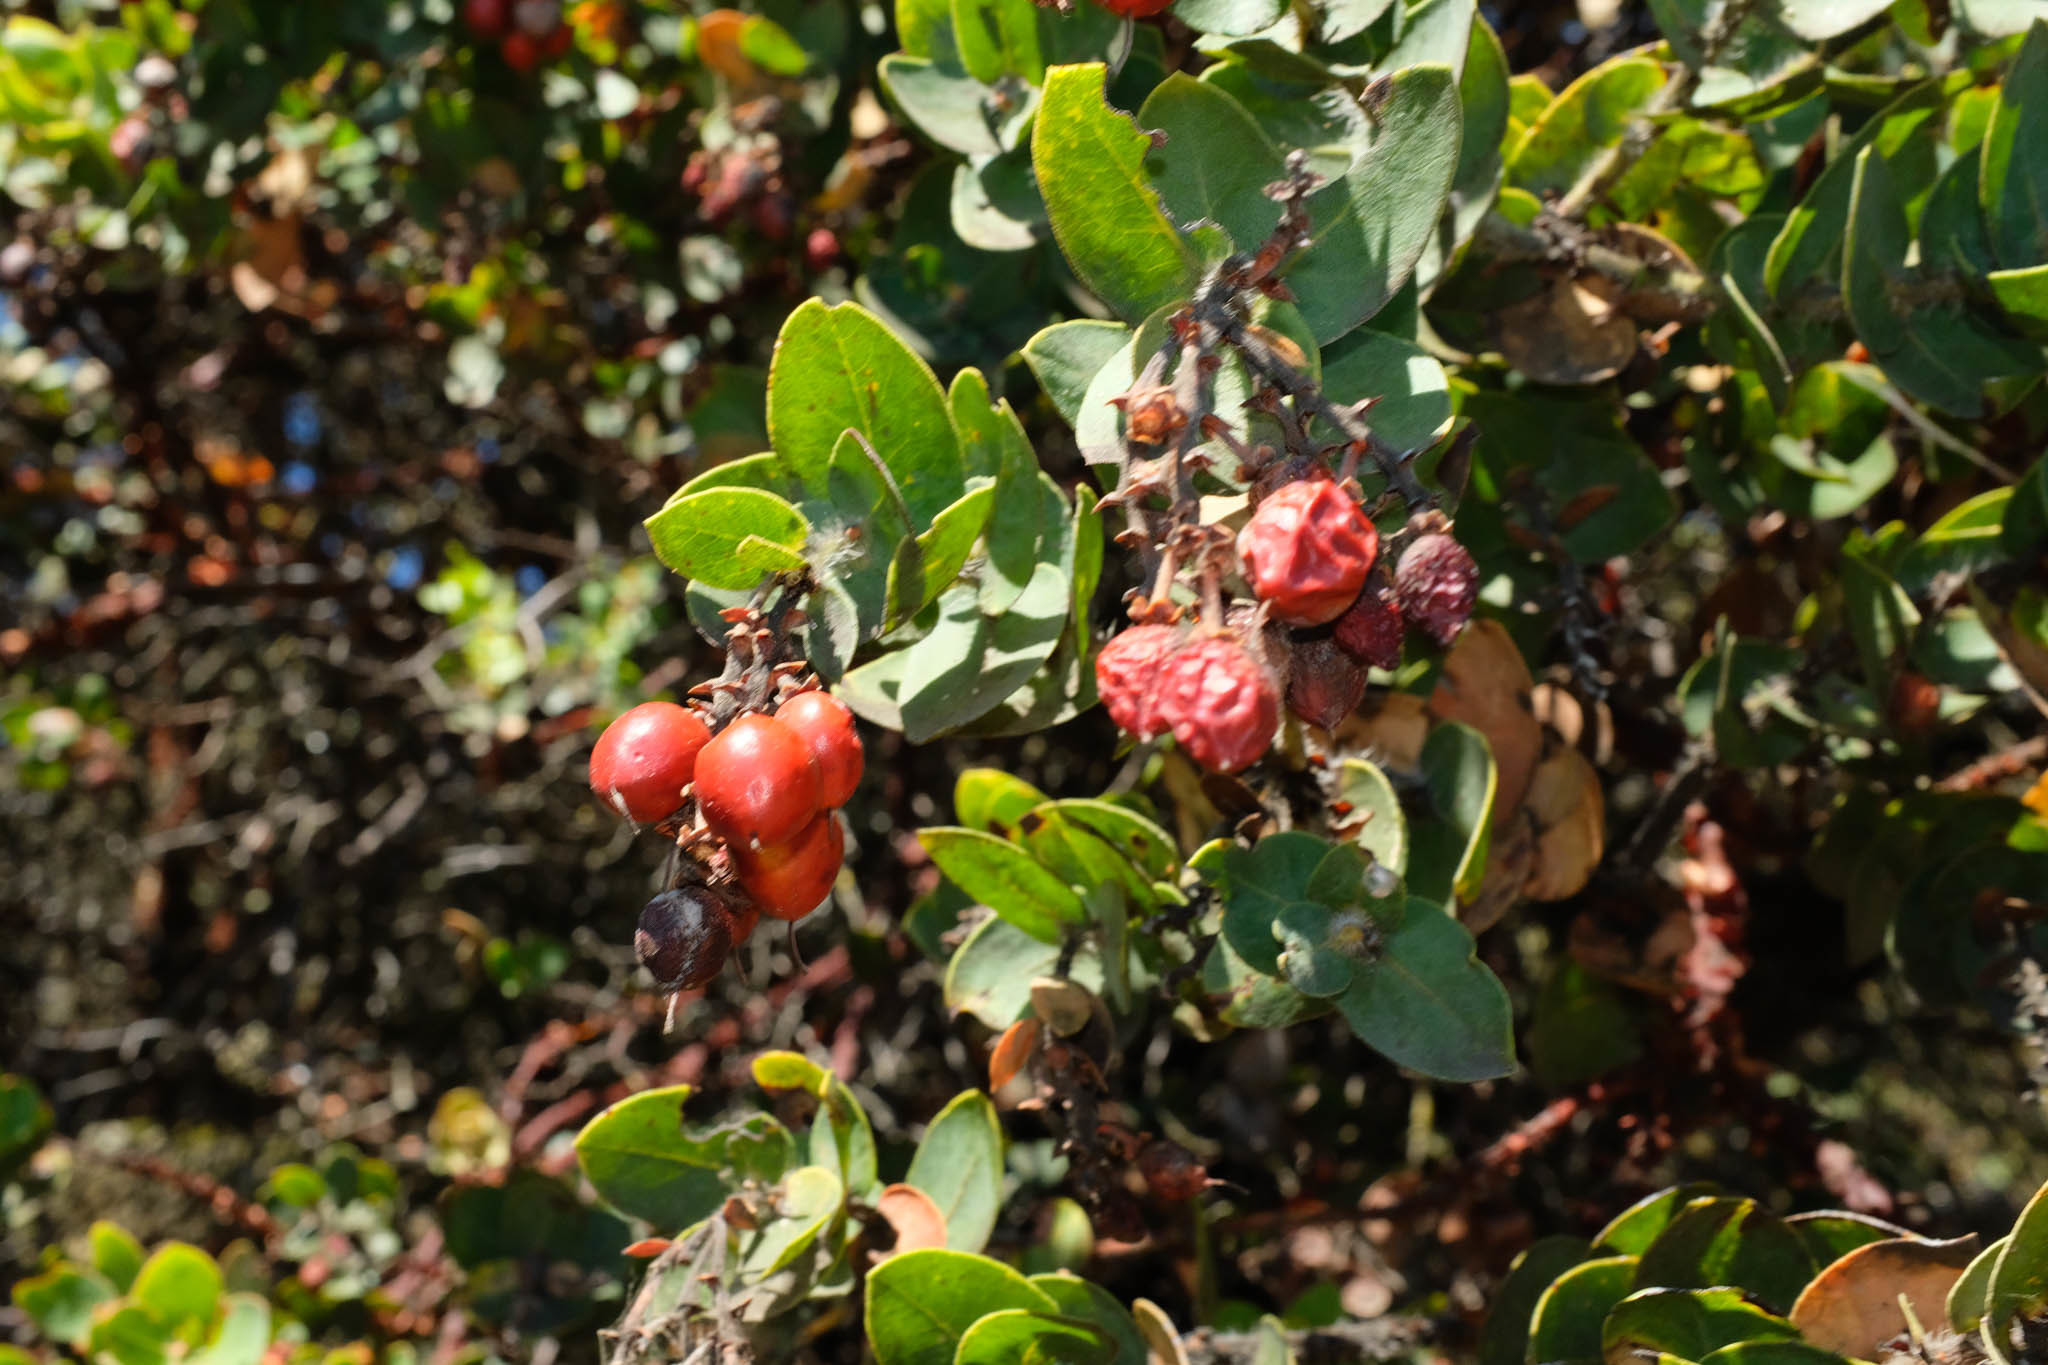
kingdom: Plantae
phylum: Tracheophyta
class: Magnoliopsida
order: Ericales
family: Ericaceae
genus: Arctostaphylos
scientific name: Arctostaphylos refugioensis
